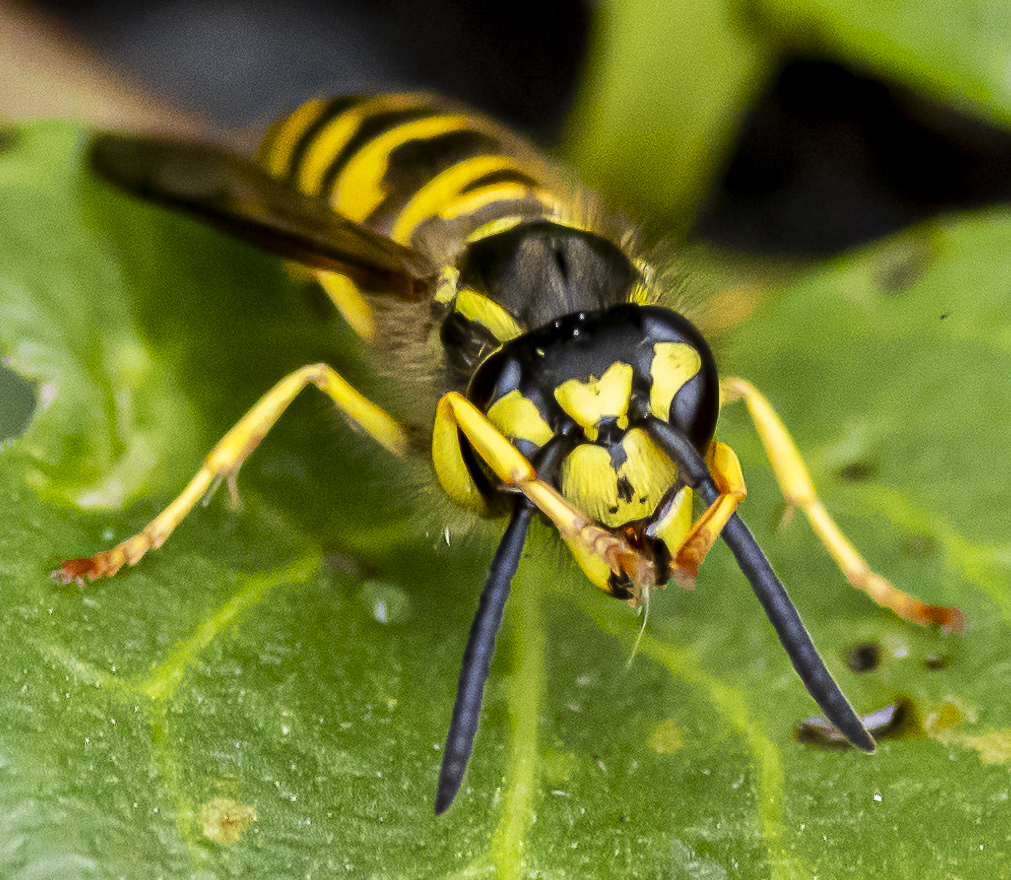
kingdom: Animalia
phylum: Arthropoda
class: Insecta
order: Hymenoptera
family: Vespidae
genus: Vespula
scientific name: Vespula maculifrons
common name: Eastern yellowjacket
